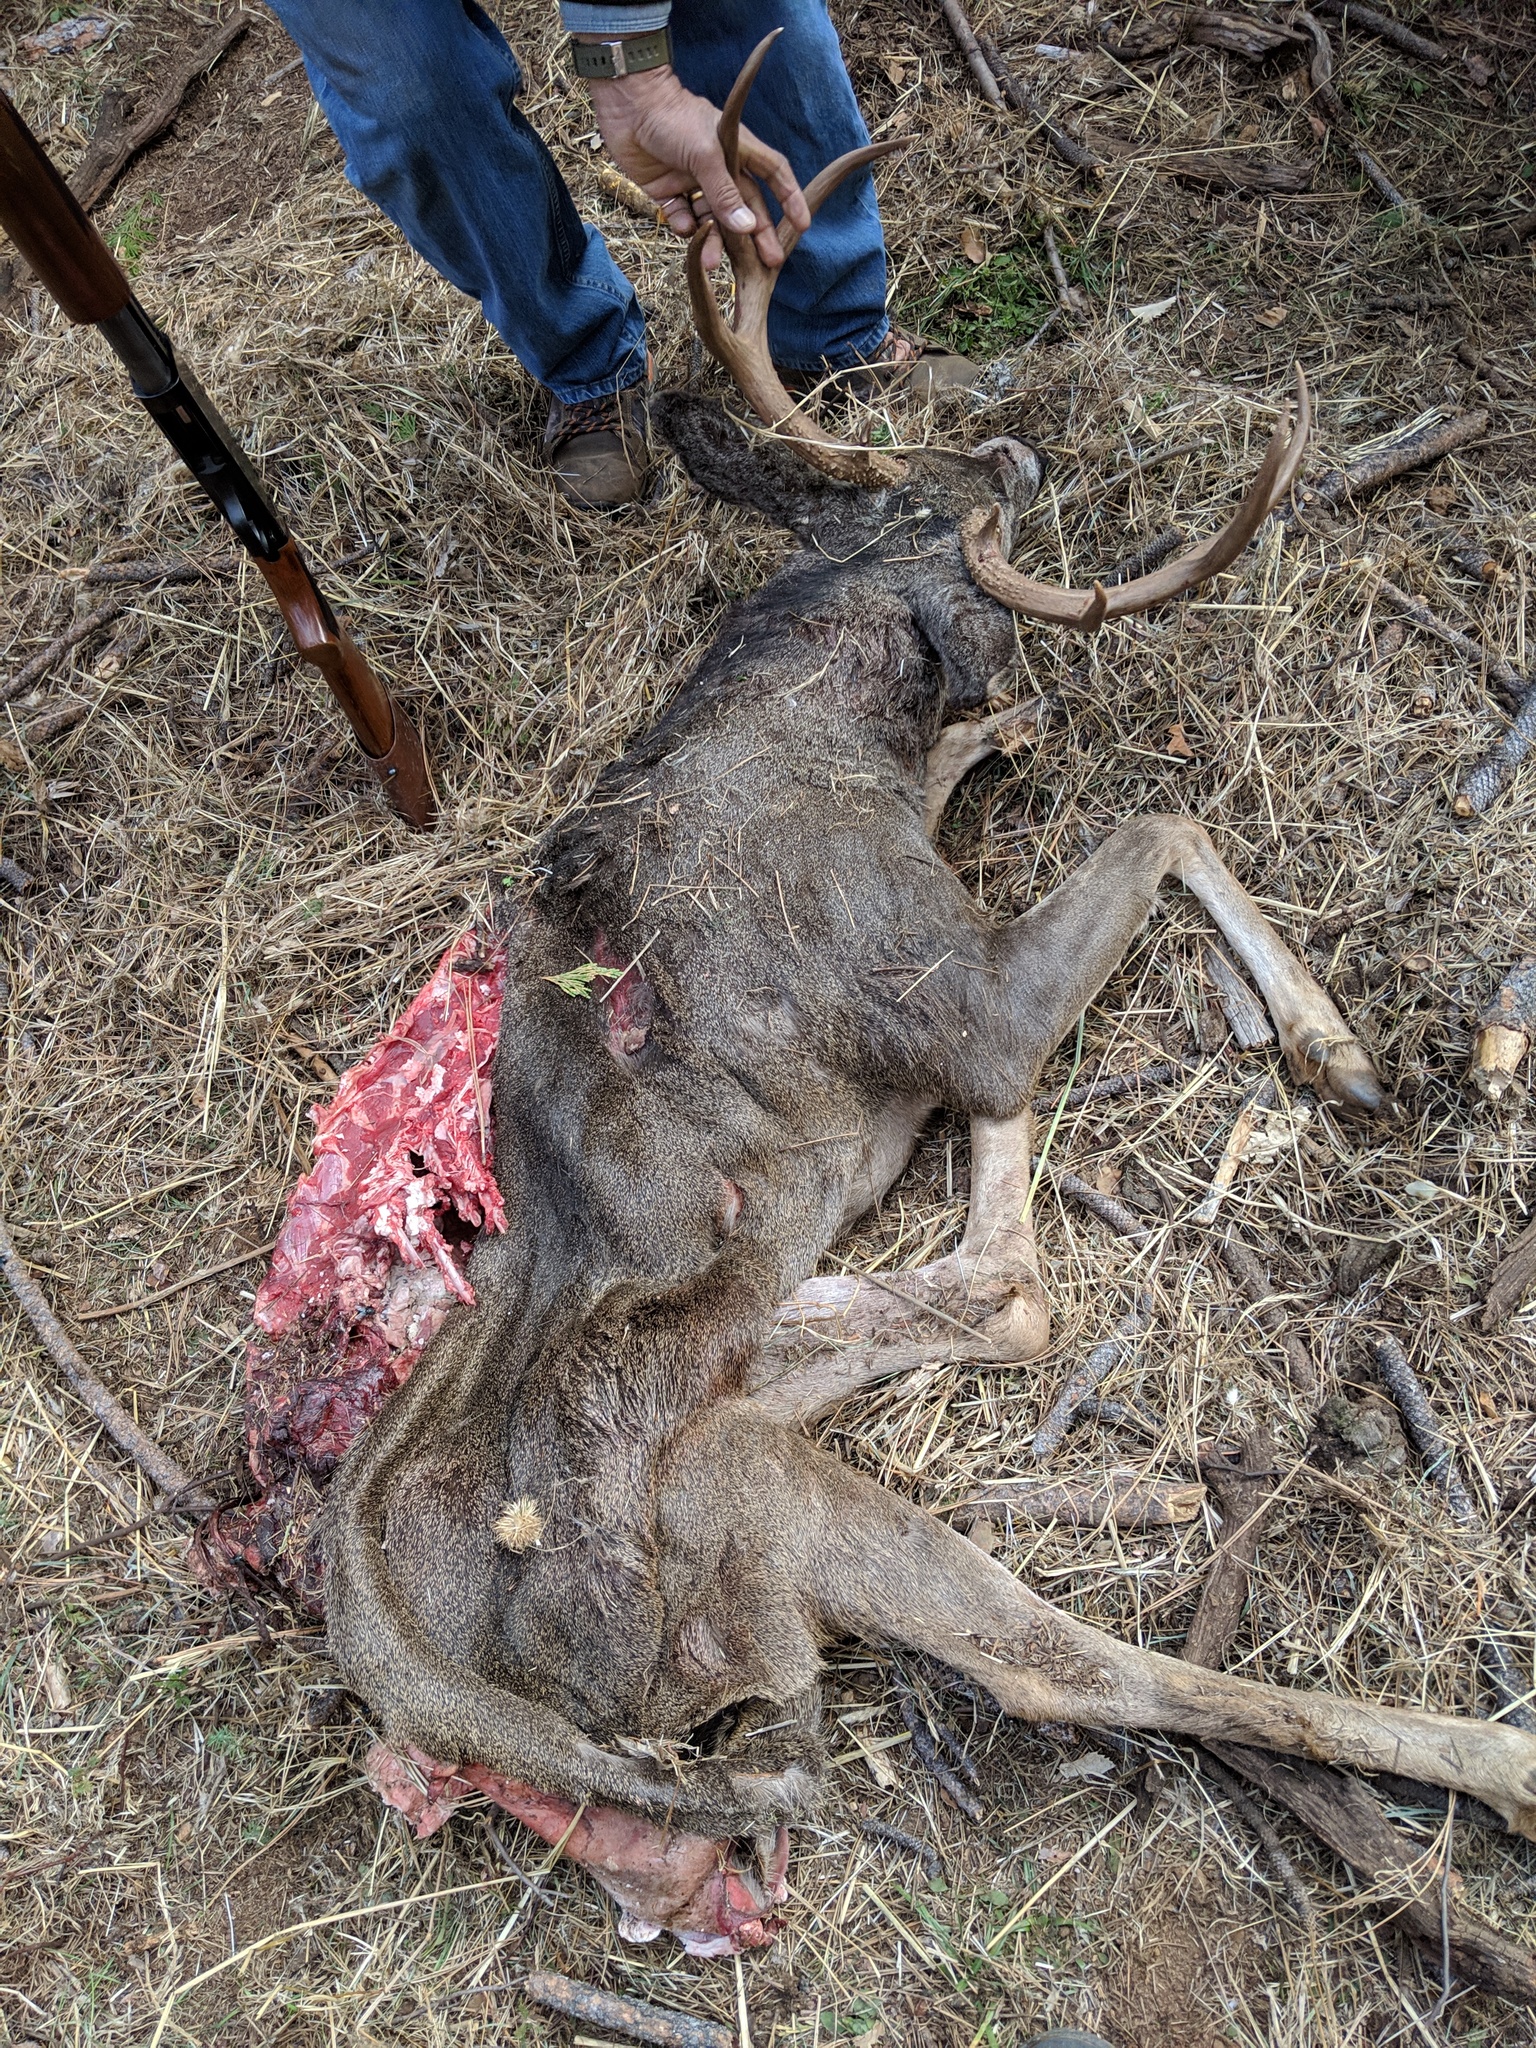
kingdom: Animalia
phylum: Chordata
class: Mammalia
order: Artiodactyla
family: Cervidae
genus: Odocoileus
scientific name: Odocoileus hemionus
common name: Mule deer
